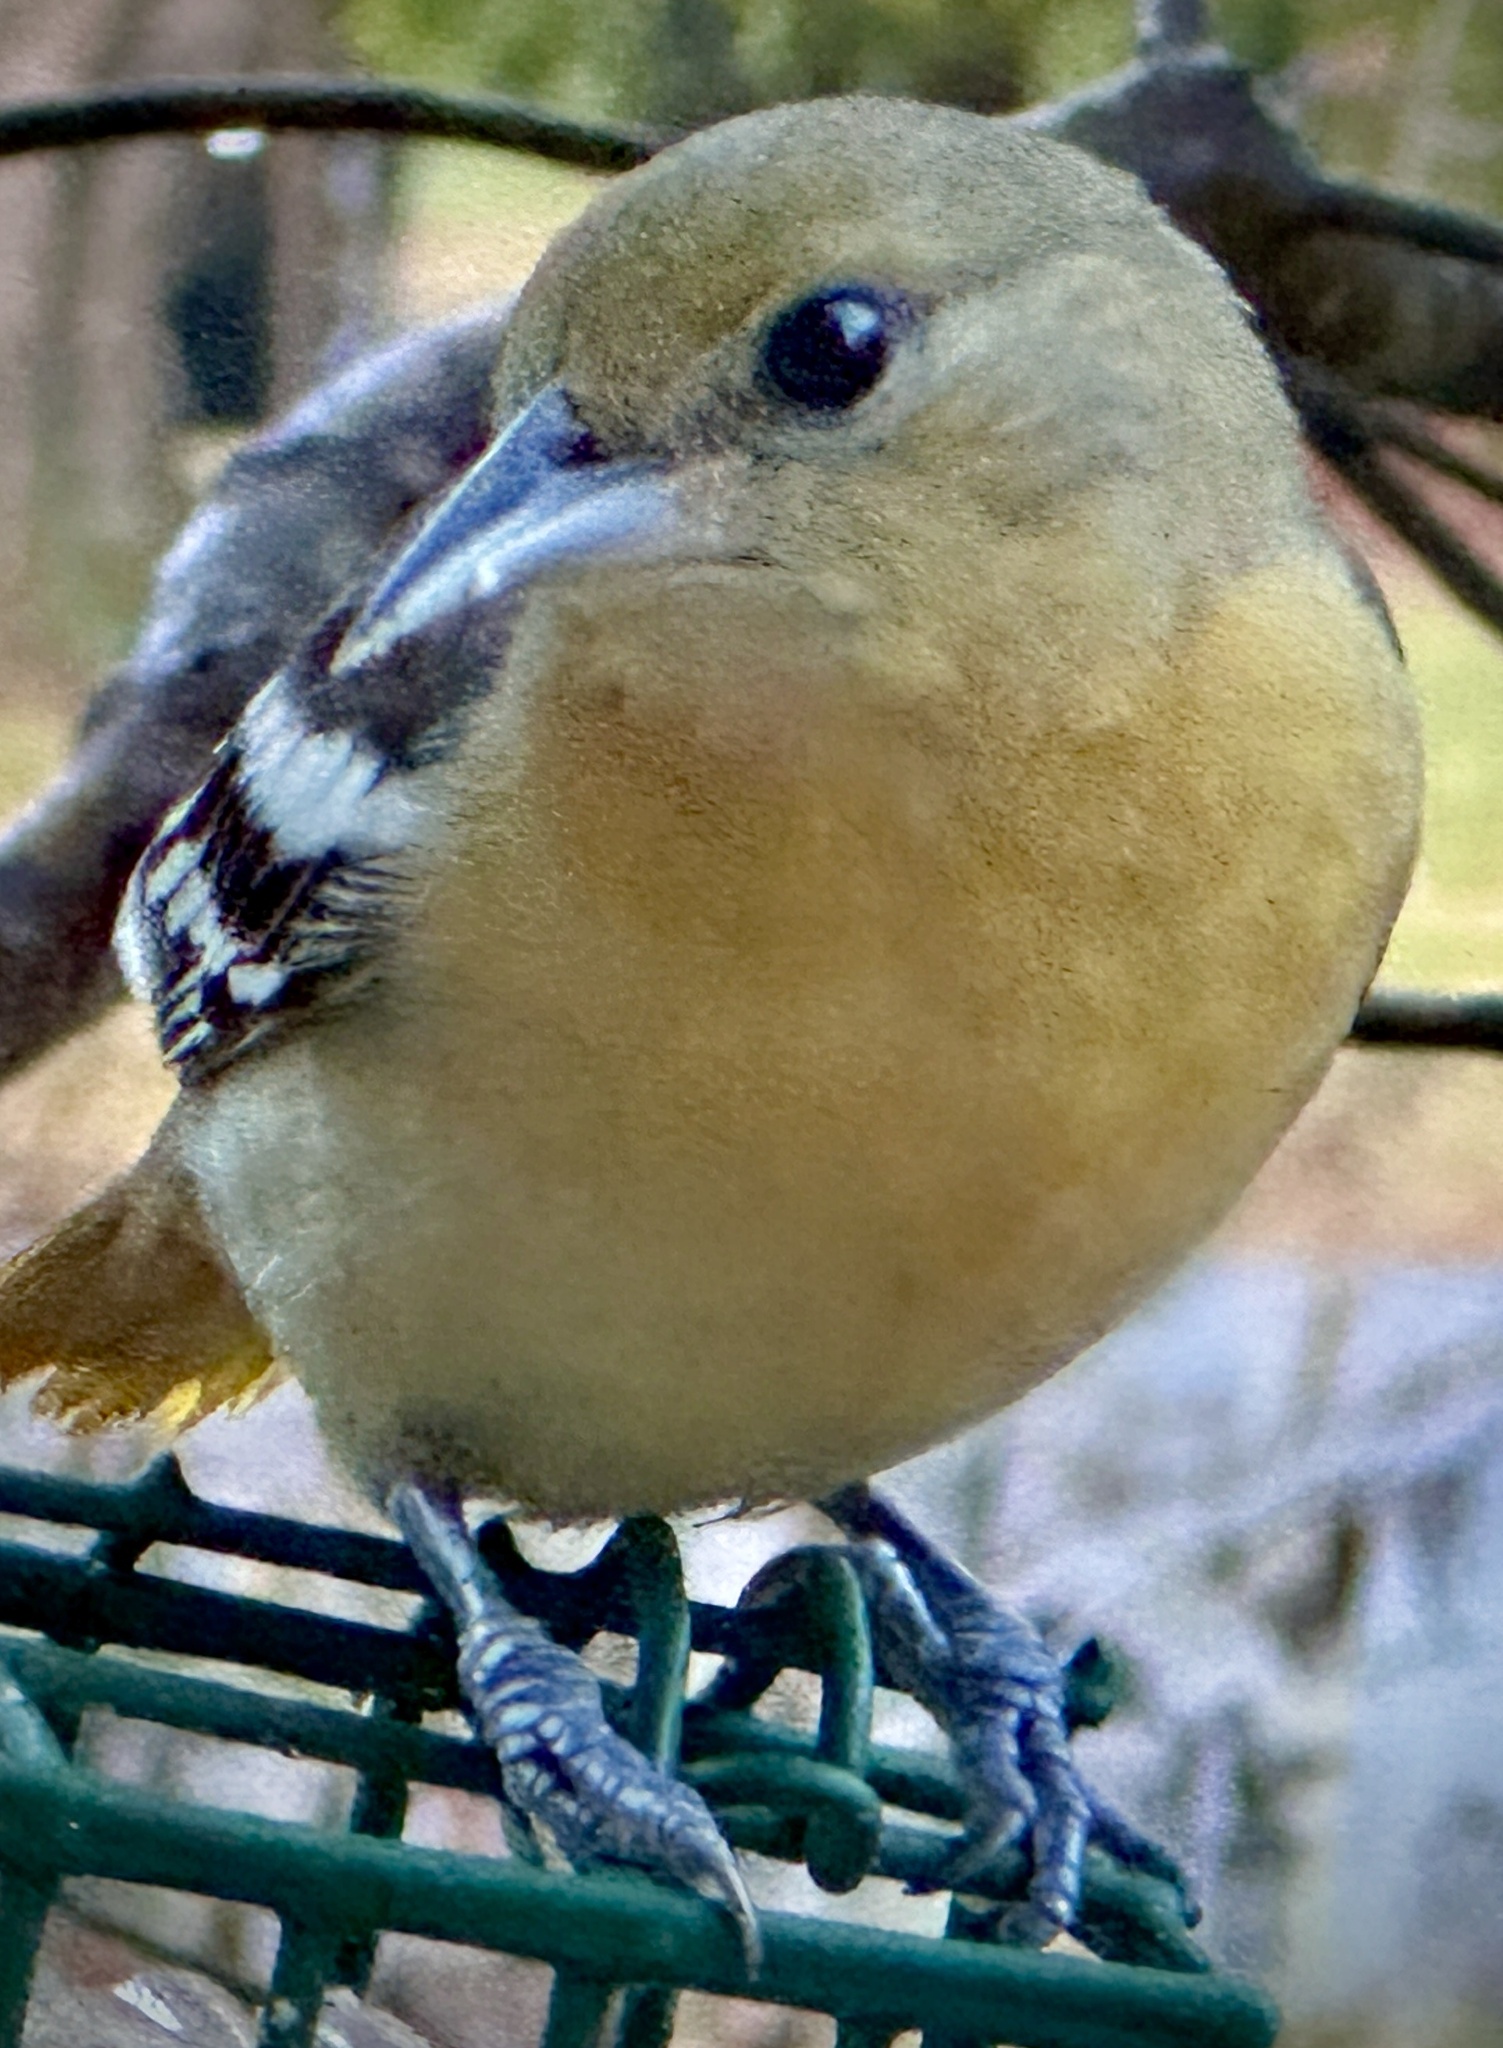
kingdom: Animalia
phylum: Chordata
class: Aves
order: Passeriformes
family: Icteridae
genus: Icterus
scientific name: Icterus galbula
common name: Baltimore oriole
